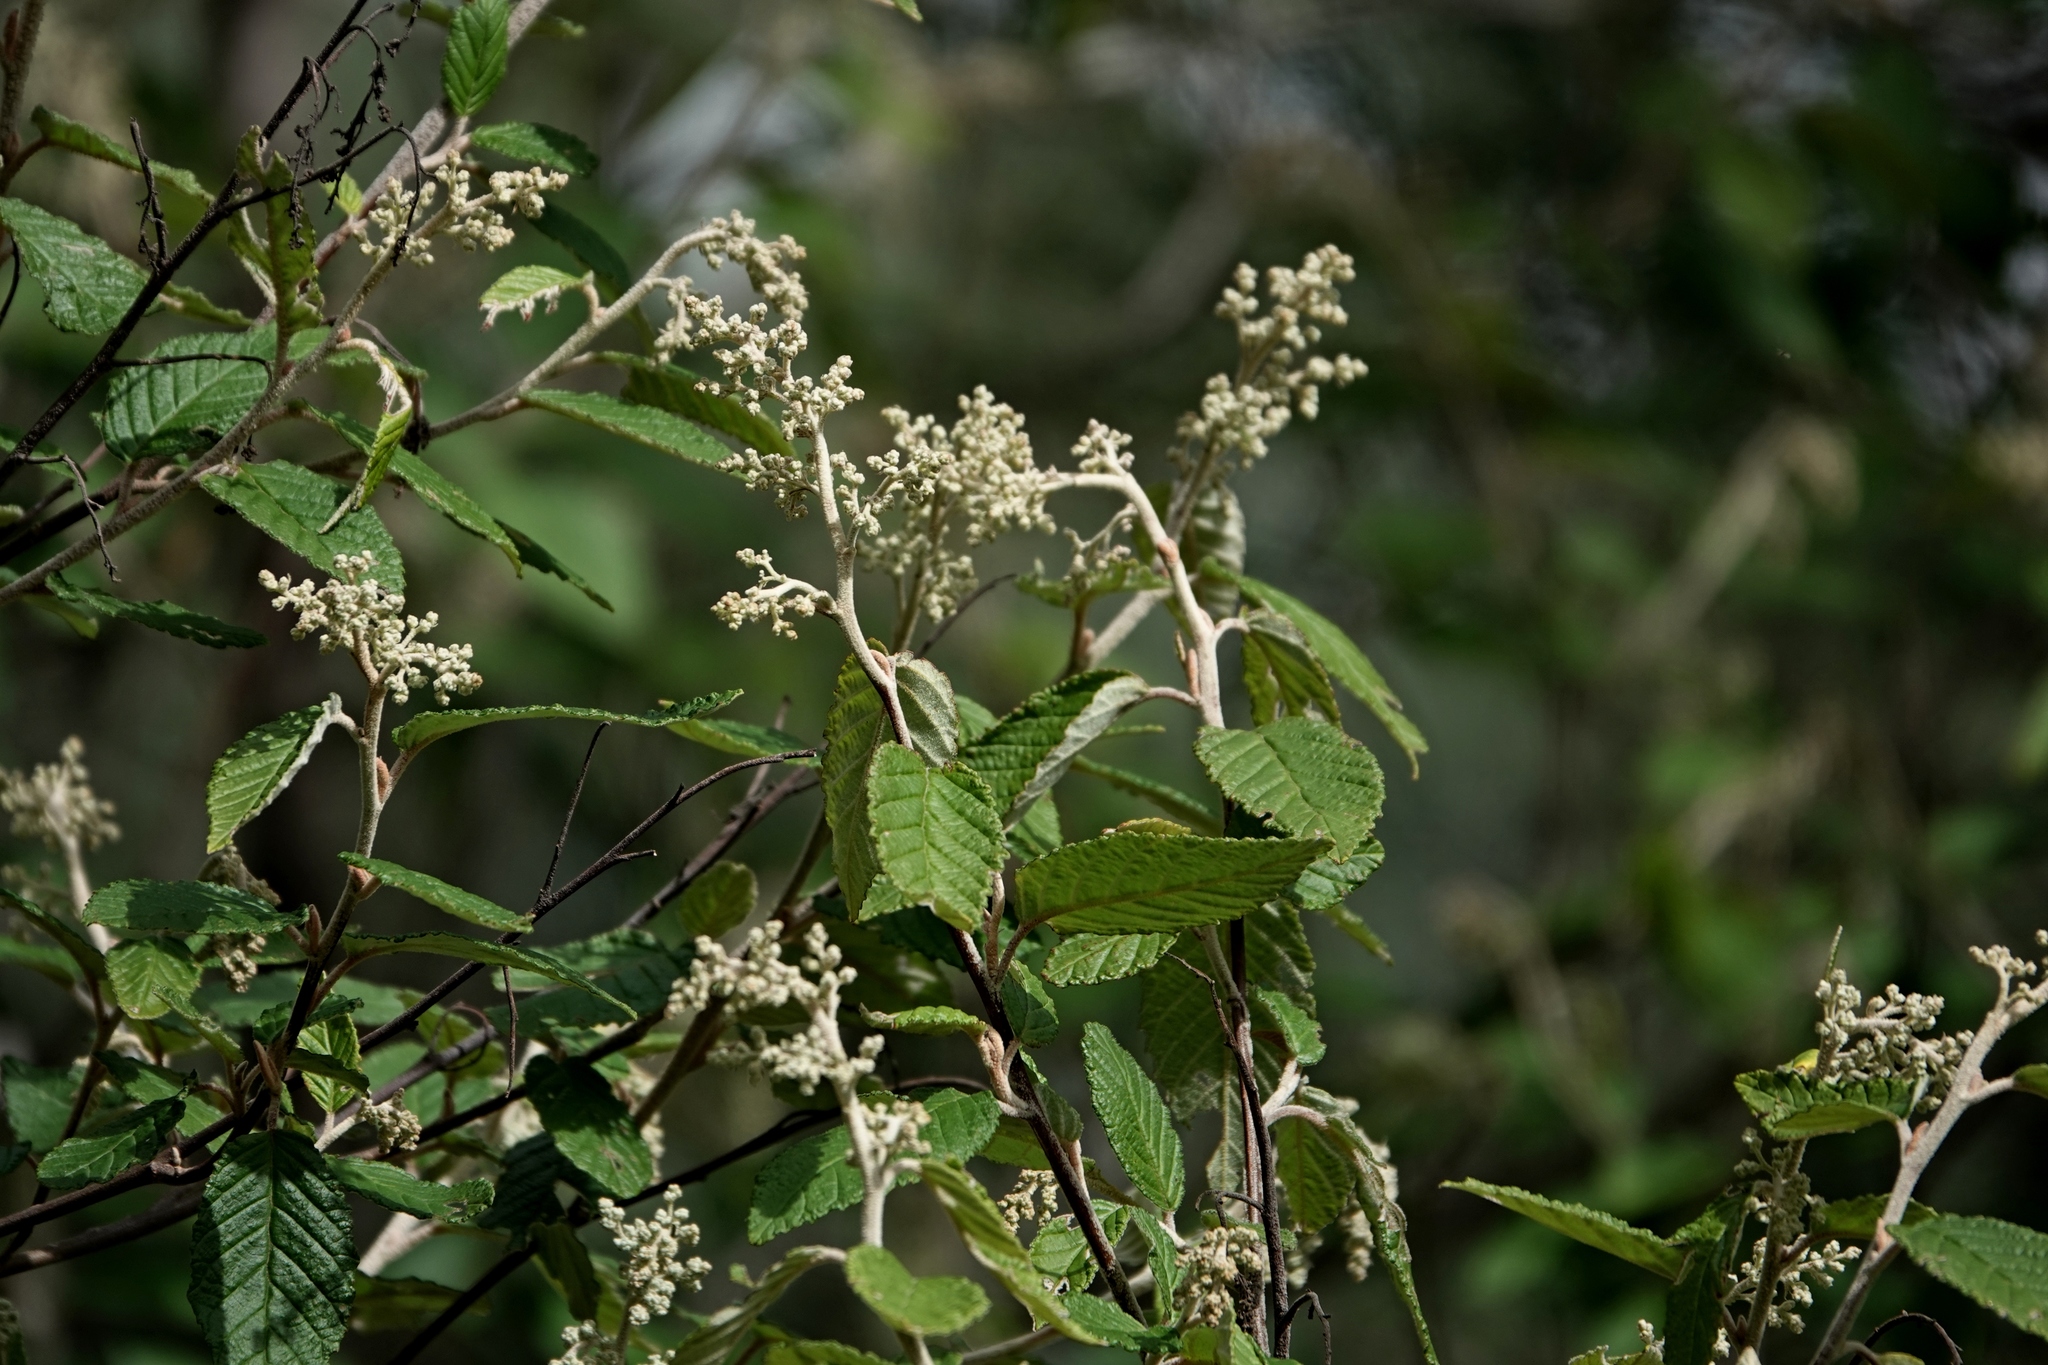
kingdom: Plantae
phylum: Tracheophyta
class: Magnoliopsida
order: Rosales
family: Rhamnaceae
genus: Pomaderris
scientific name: Pomaderris aspera
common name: Hazel pomaderris
